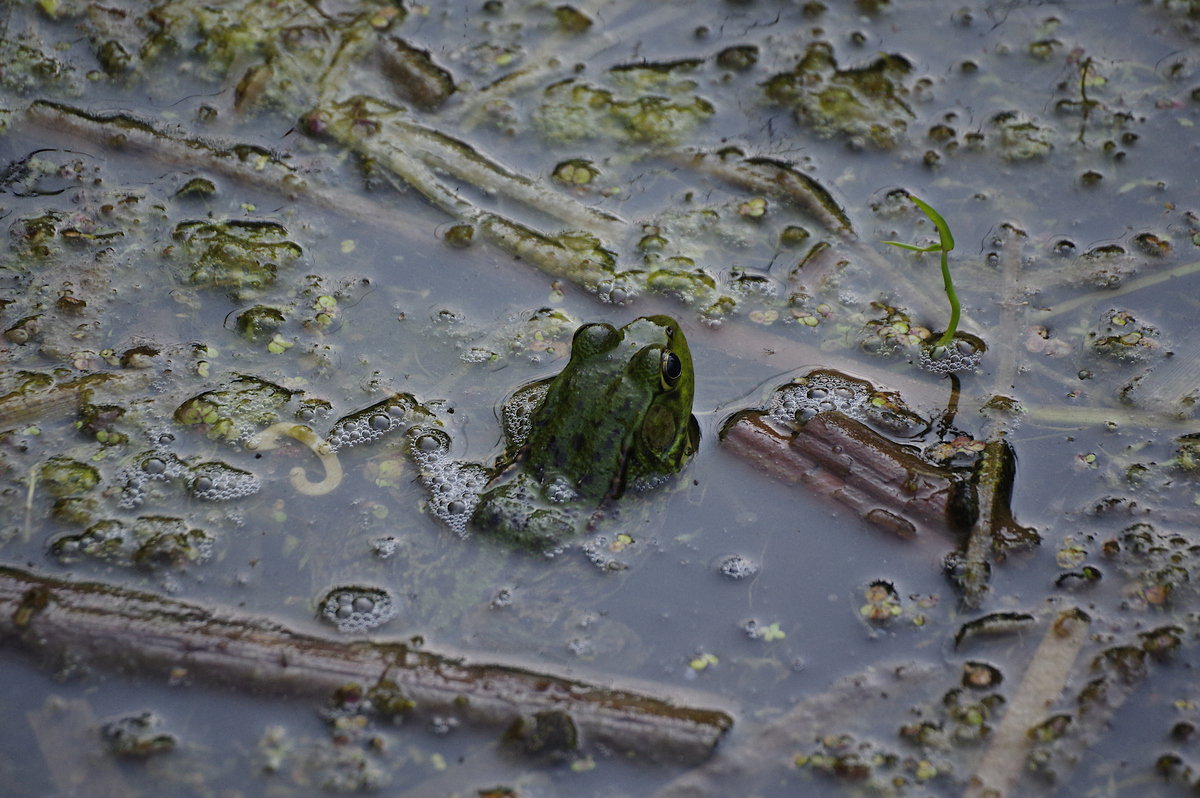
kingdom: Animalia
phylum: Chordata
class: Amphibia
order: Anura
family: Ranidae
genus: Lithobates
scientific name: Lithobates clamitans
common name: Green frog
